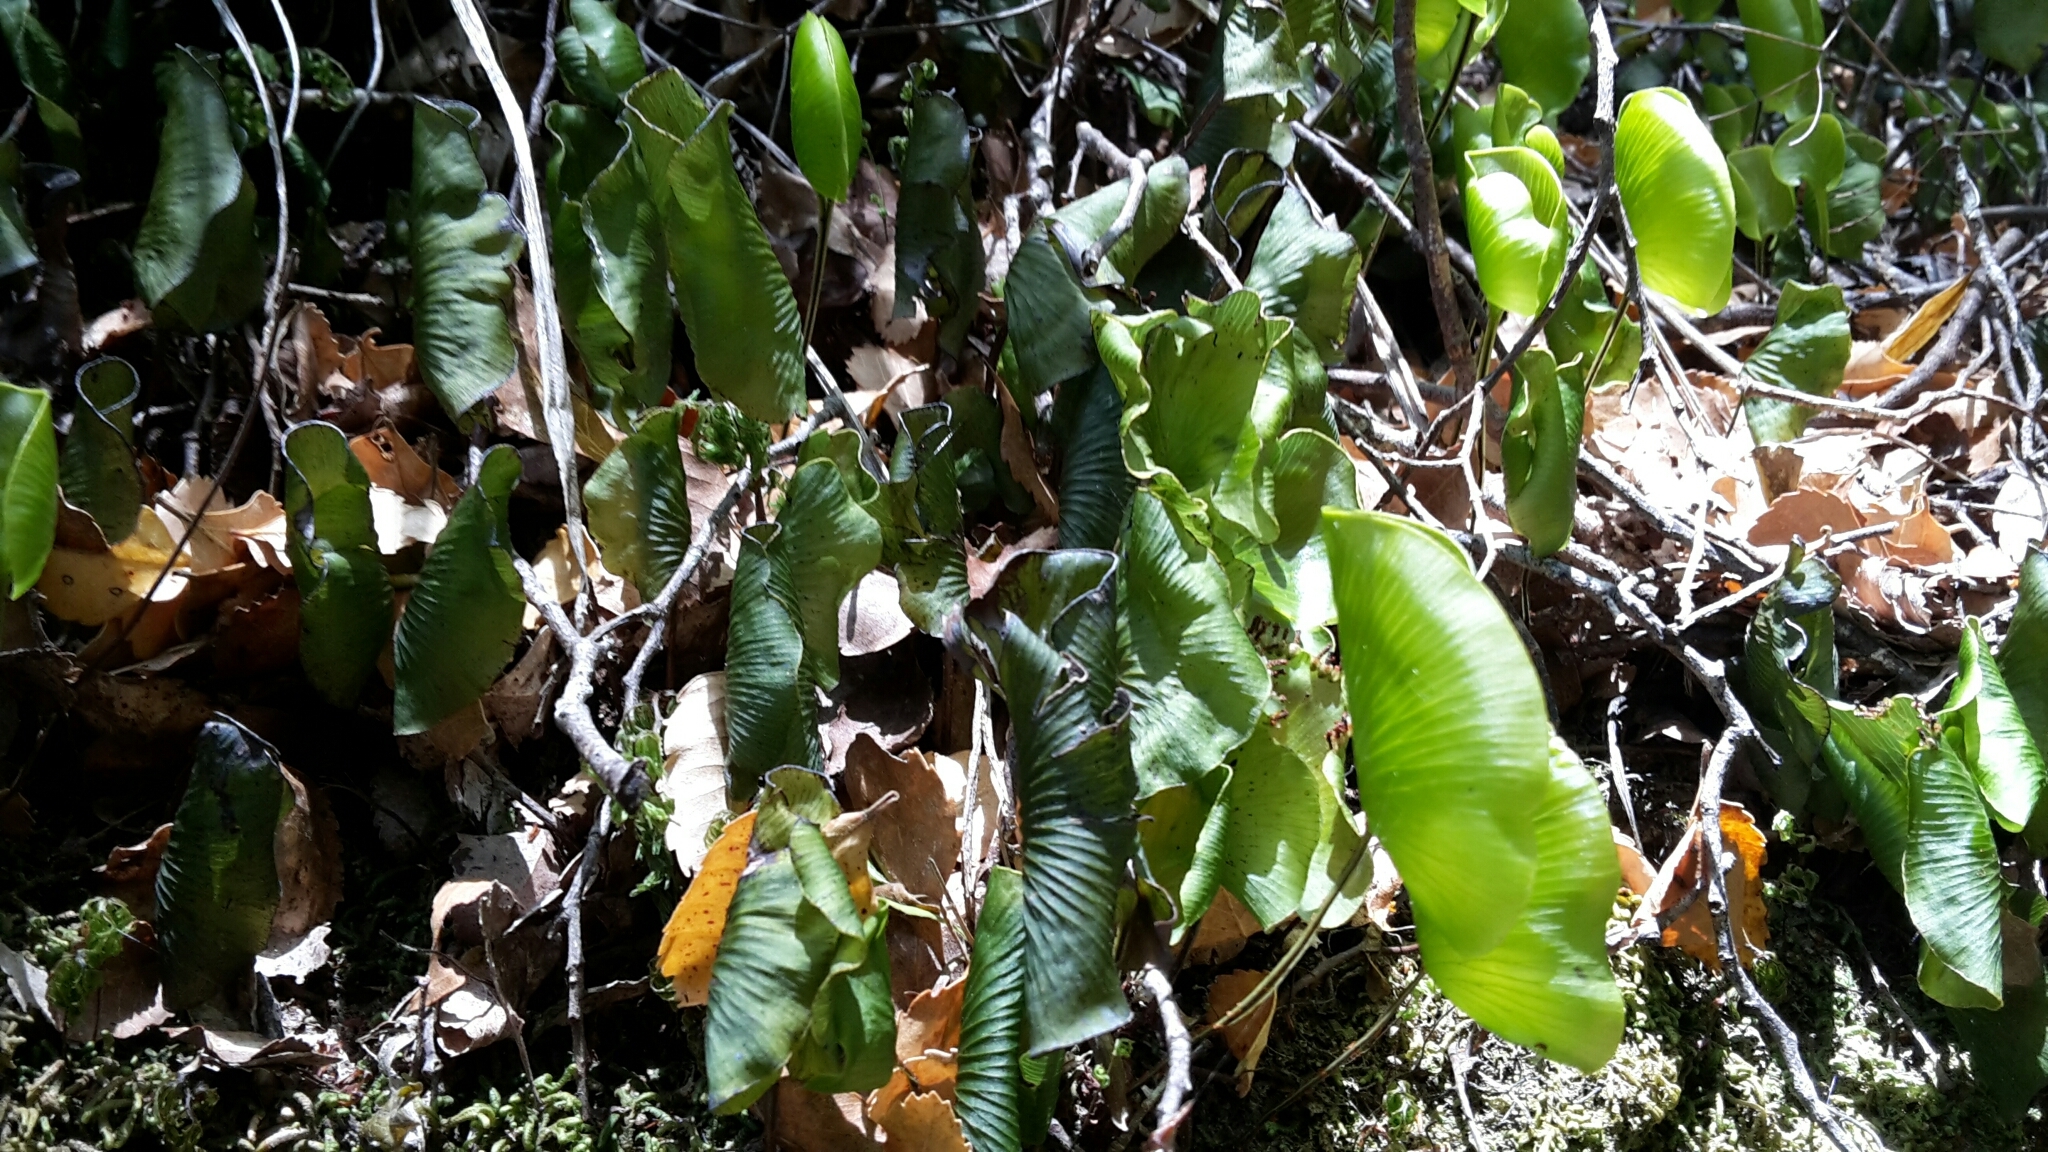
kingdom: Plantae
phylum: Tracheophyta
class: Polypodiopsida
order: Hymenophyllales
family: Hymenophyllaceae
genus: Hymenophyllum
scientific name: Hymenophyllum nephrophyllum
